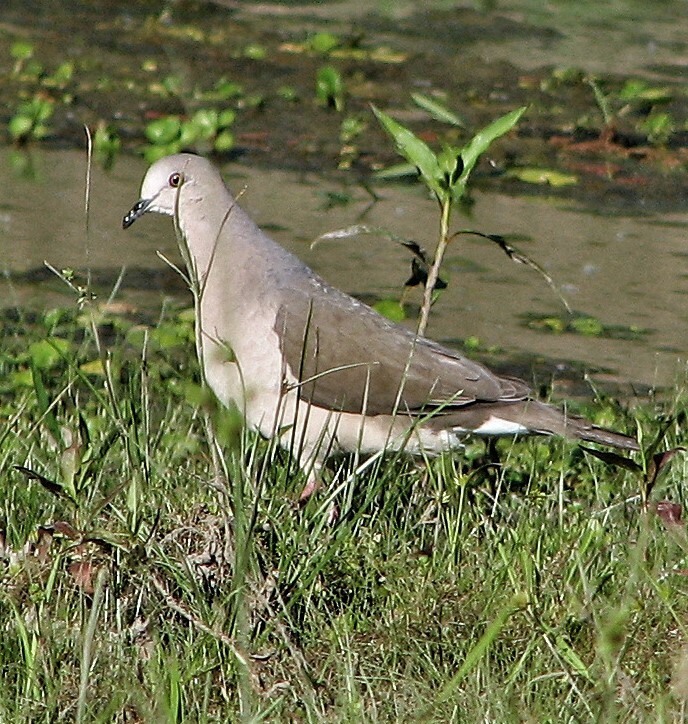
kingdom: Animalia
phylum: Chordata
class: Aves
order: Columbiformes
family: Columbidae
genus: Leptotila
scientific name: Leptotila verreauxi
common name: White-tipped dove
